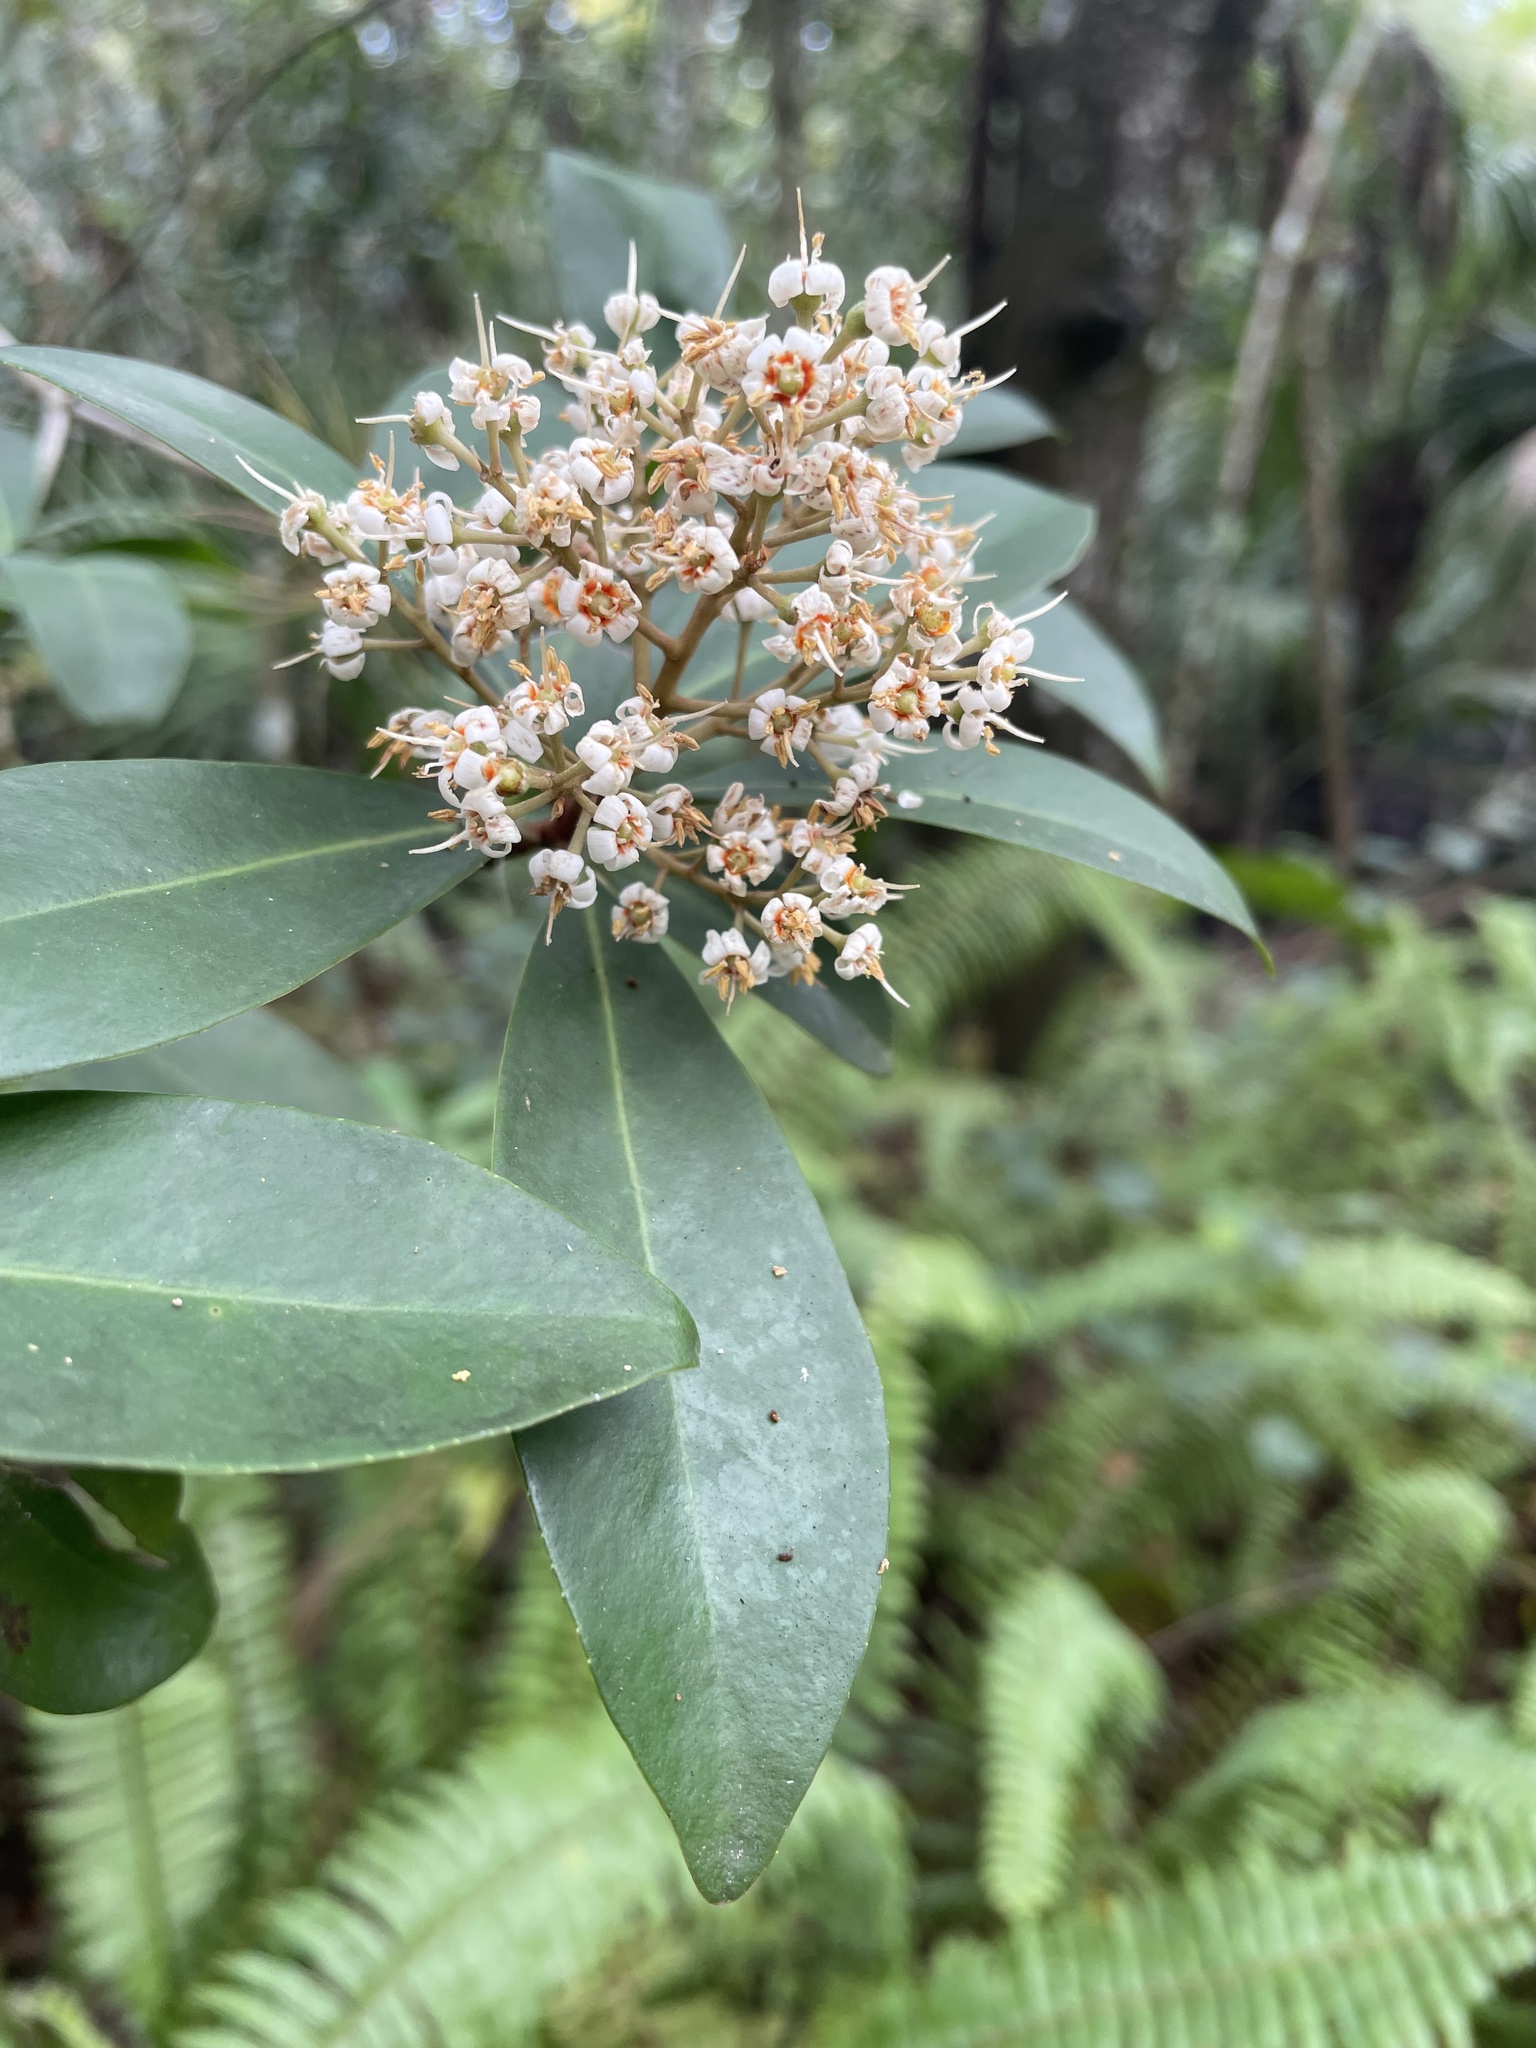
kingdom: Plantae
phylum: Tracheophyta
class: Magnoliopsida
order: Ericales
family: Primulaceae
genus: Ardisia
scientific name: Ardisia escallonioides
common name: Island marlberry
